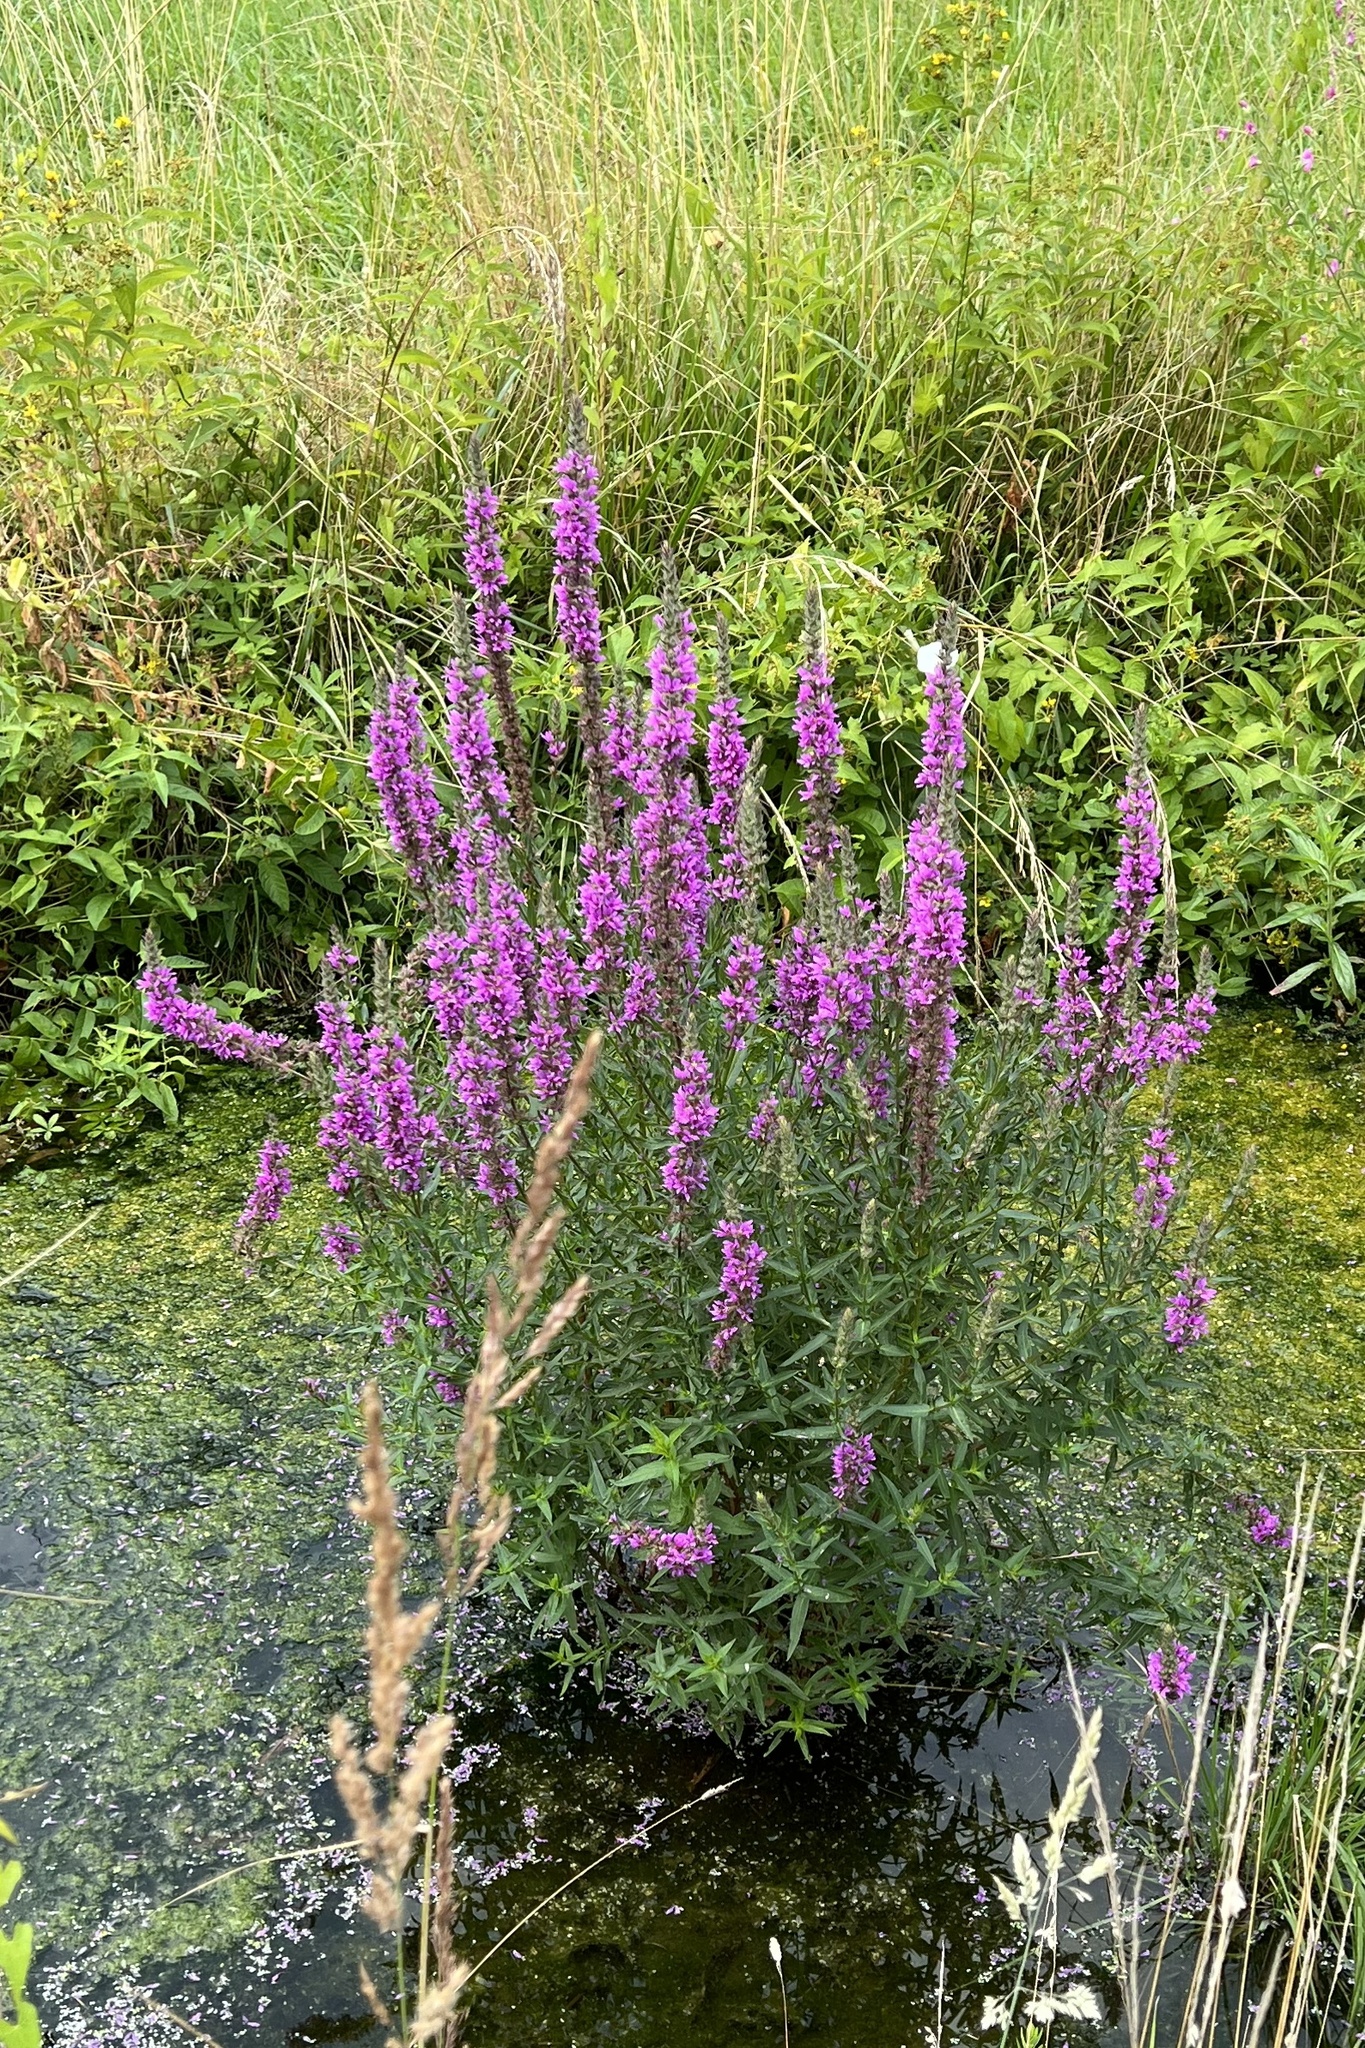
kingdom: Plantae
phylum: Tracheophyta
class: Magnoliopsida
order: Myrtales
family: Lythraceae
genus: Lythrum
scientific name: Lythrum salicaria
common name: Purple loosestrife
